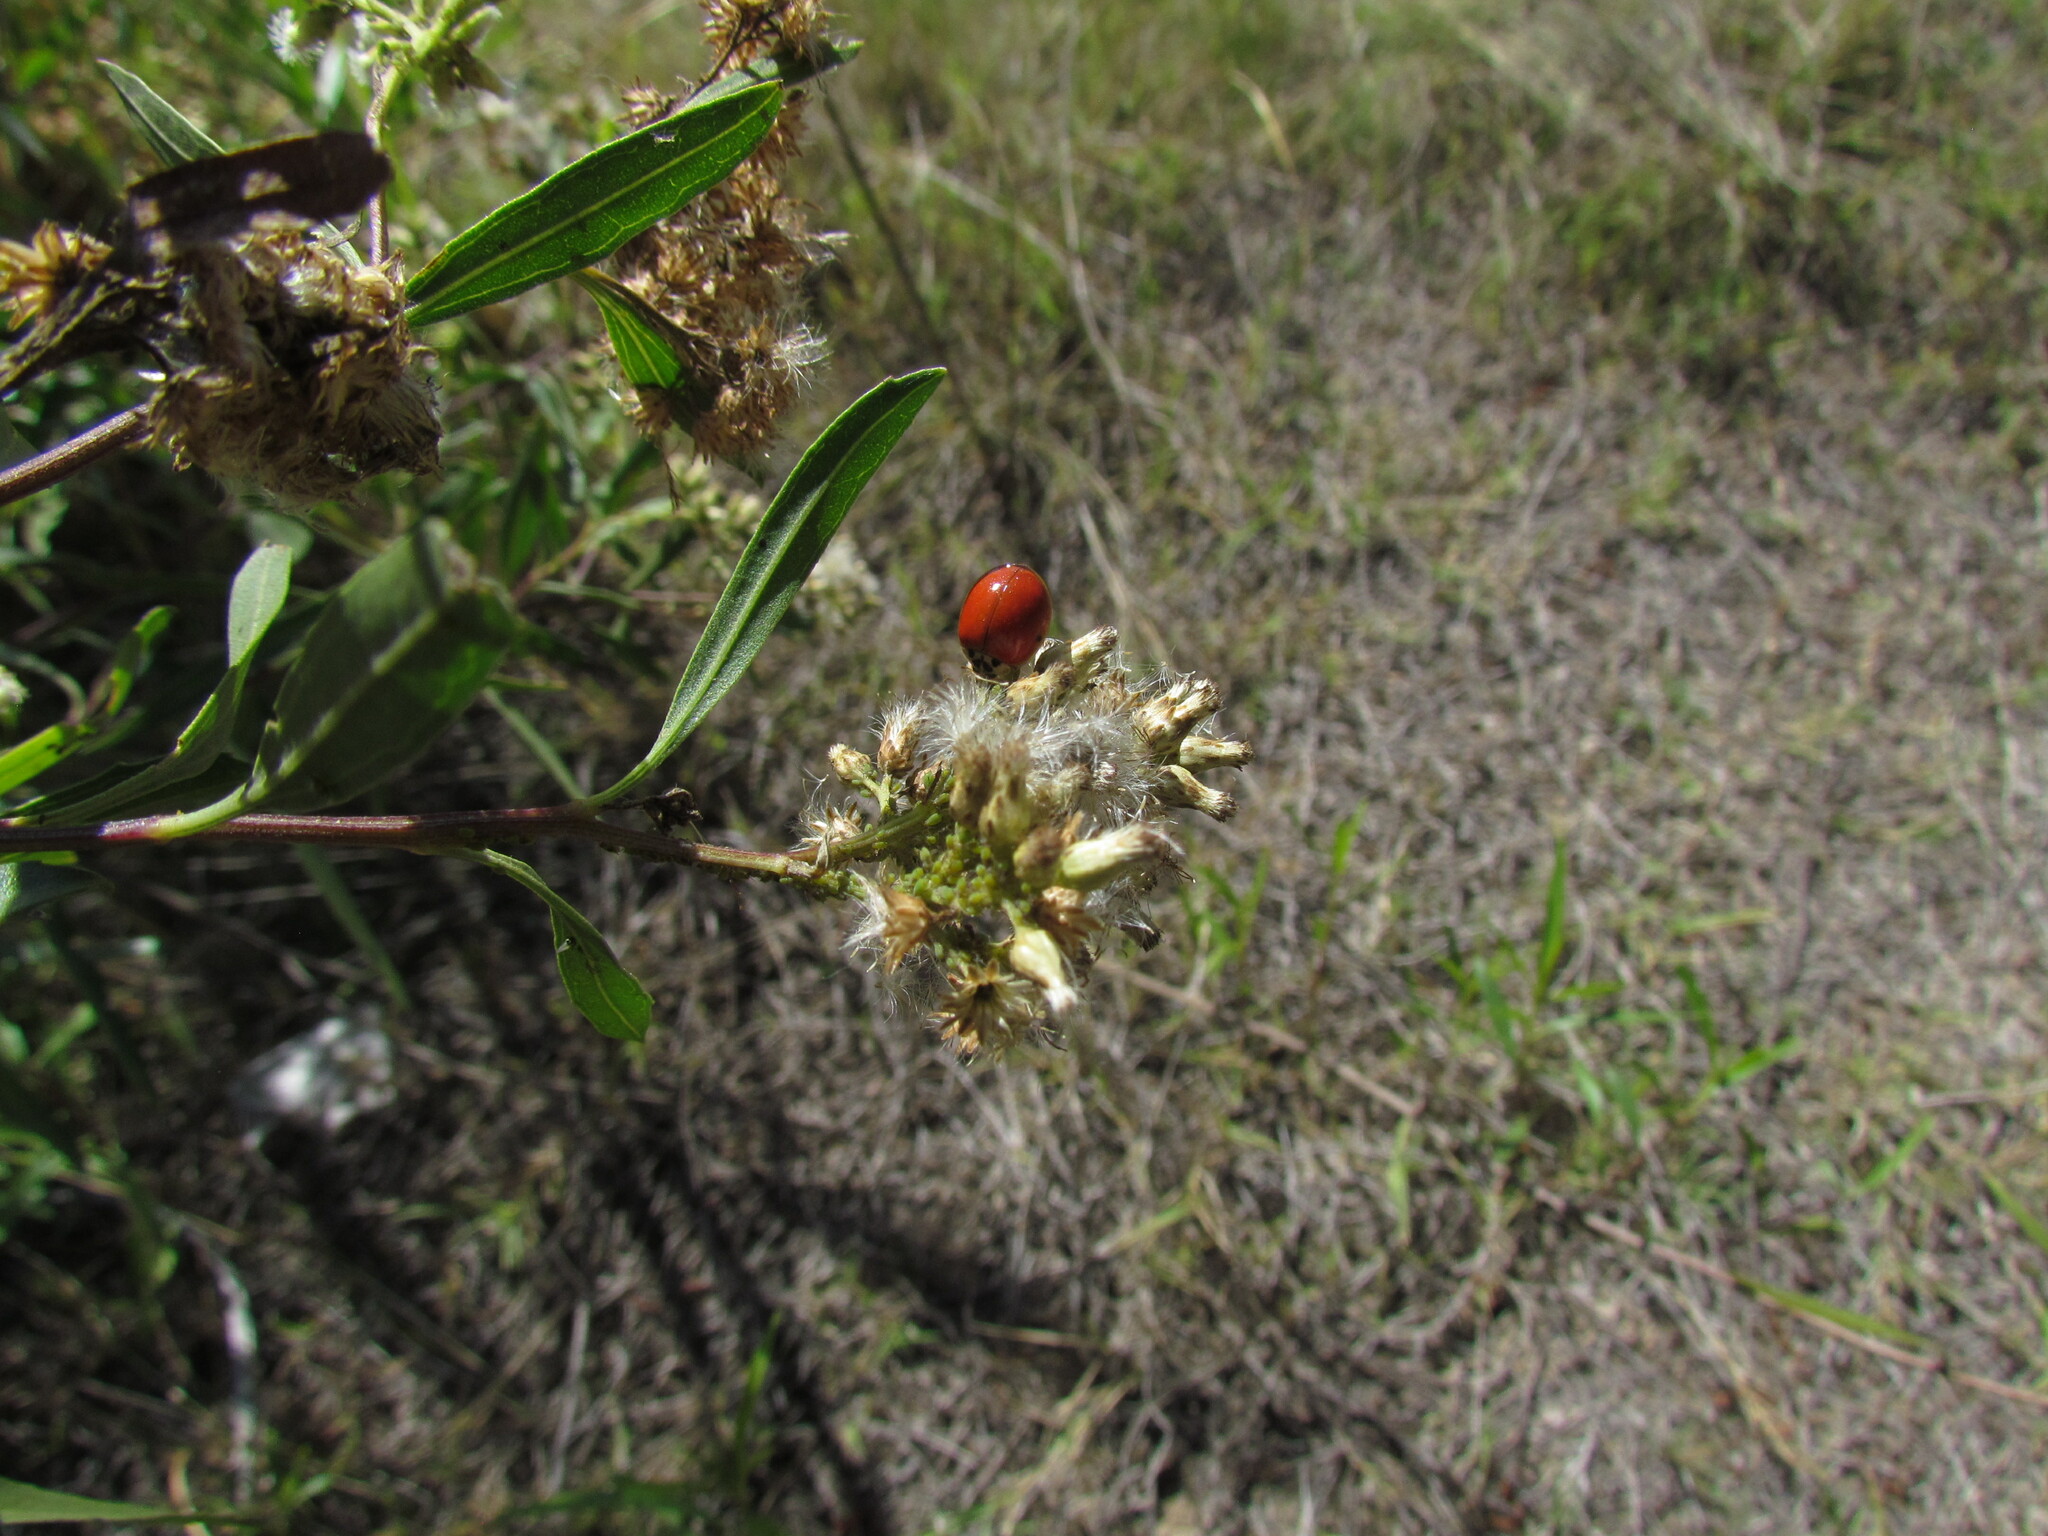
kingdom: Animalia
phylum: Arthropoda
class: Insecta
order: Coleoptera
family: Coccinellidae
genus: Harmonia
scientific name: Harmonia axyridis
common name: Harlequin ladybird
